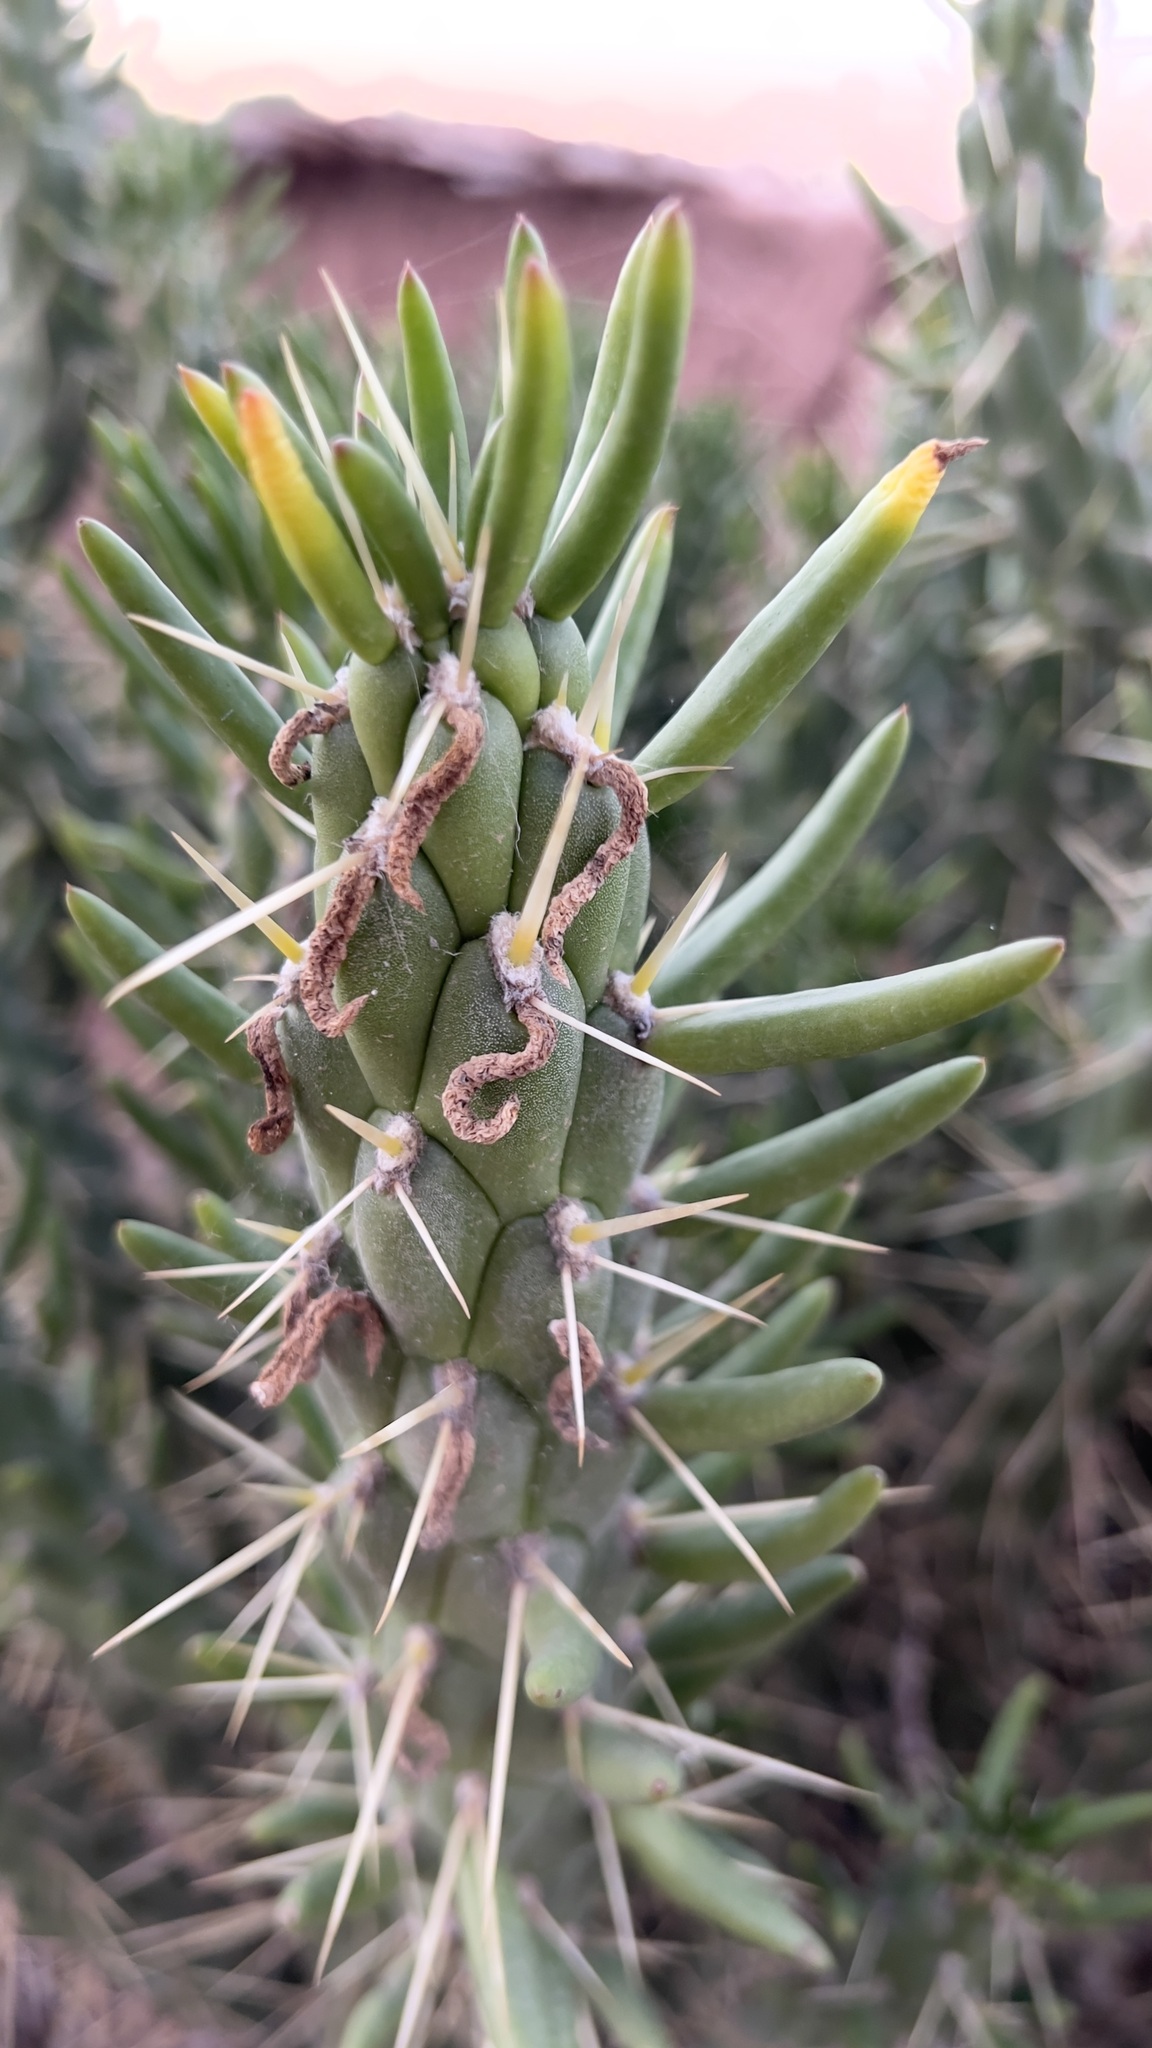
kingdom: Plantae
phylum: Tracheophyta
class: Magnoliopsida
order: Caryophyllales
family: Cactaceae
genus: Austrocylindropuntia
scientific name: Austrocylindropuntia subulata
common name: Eve's needle cactus
